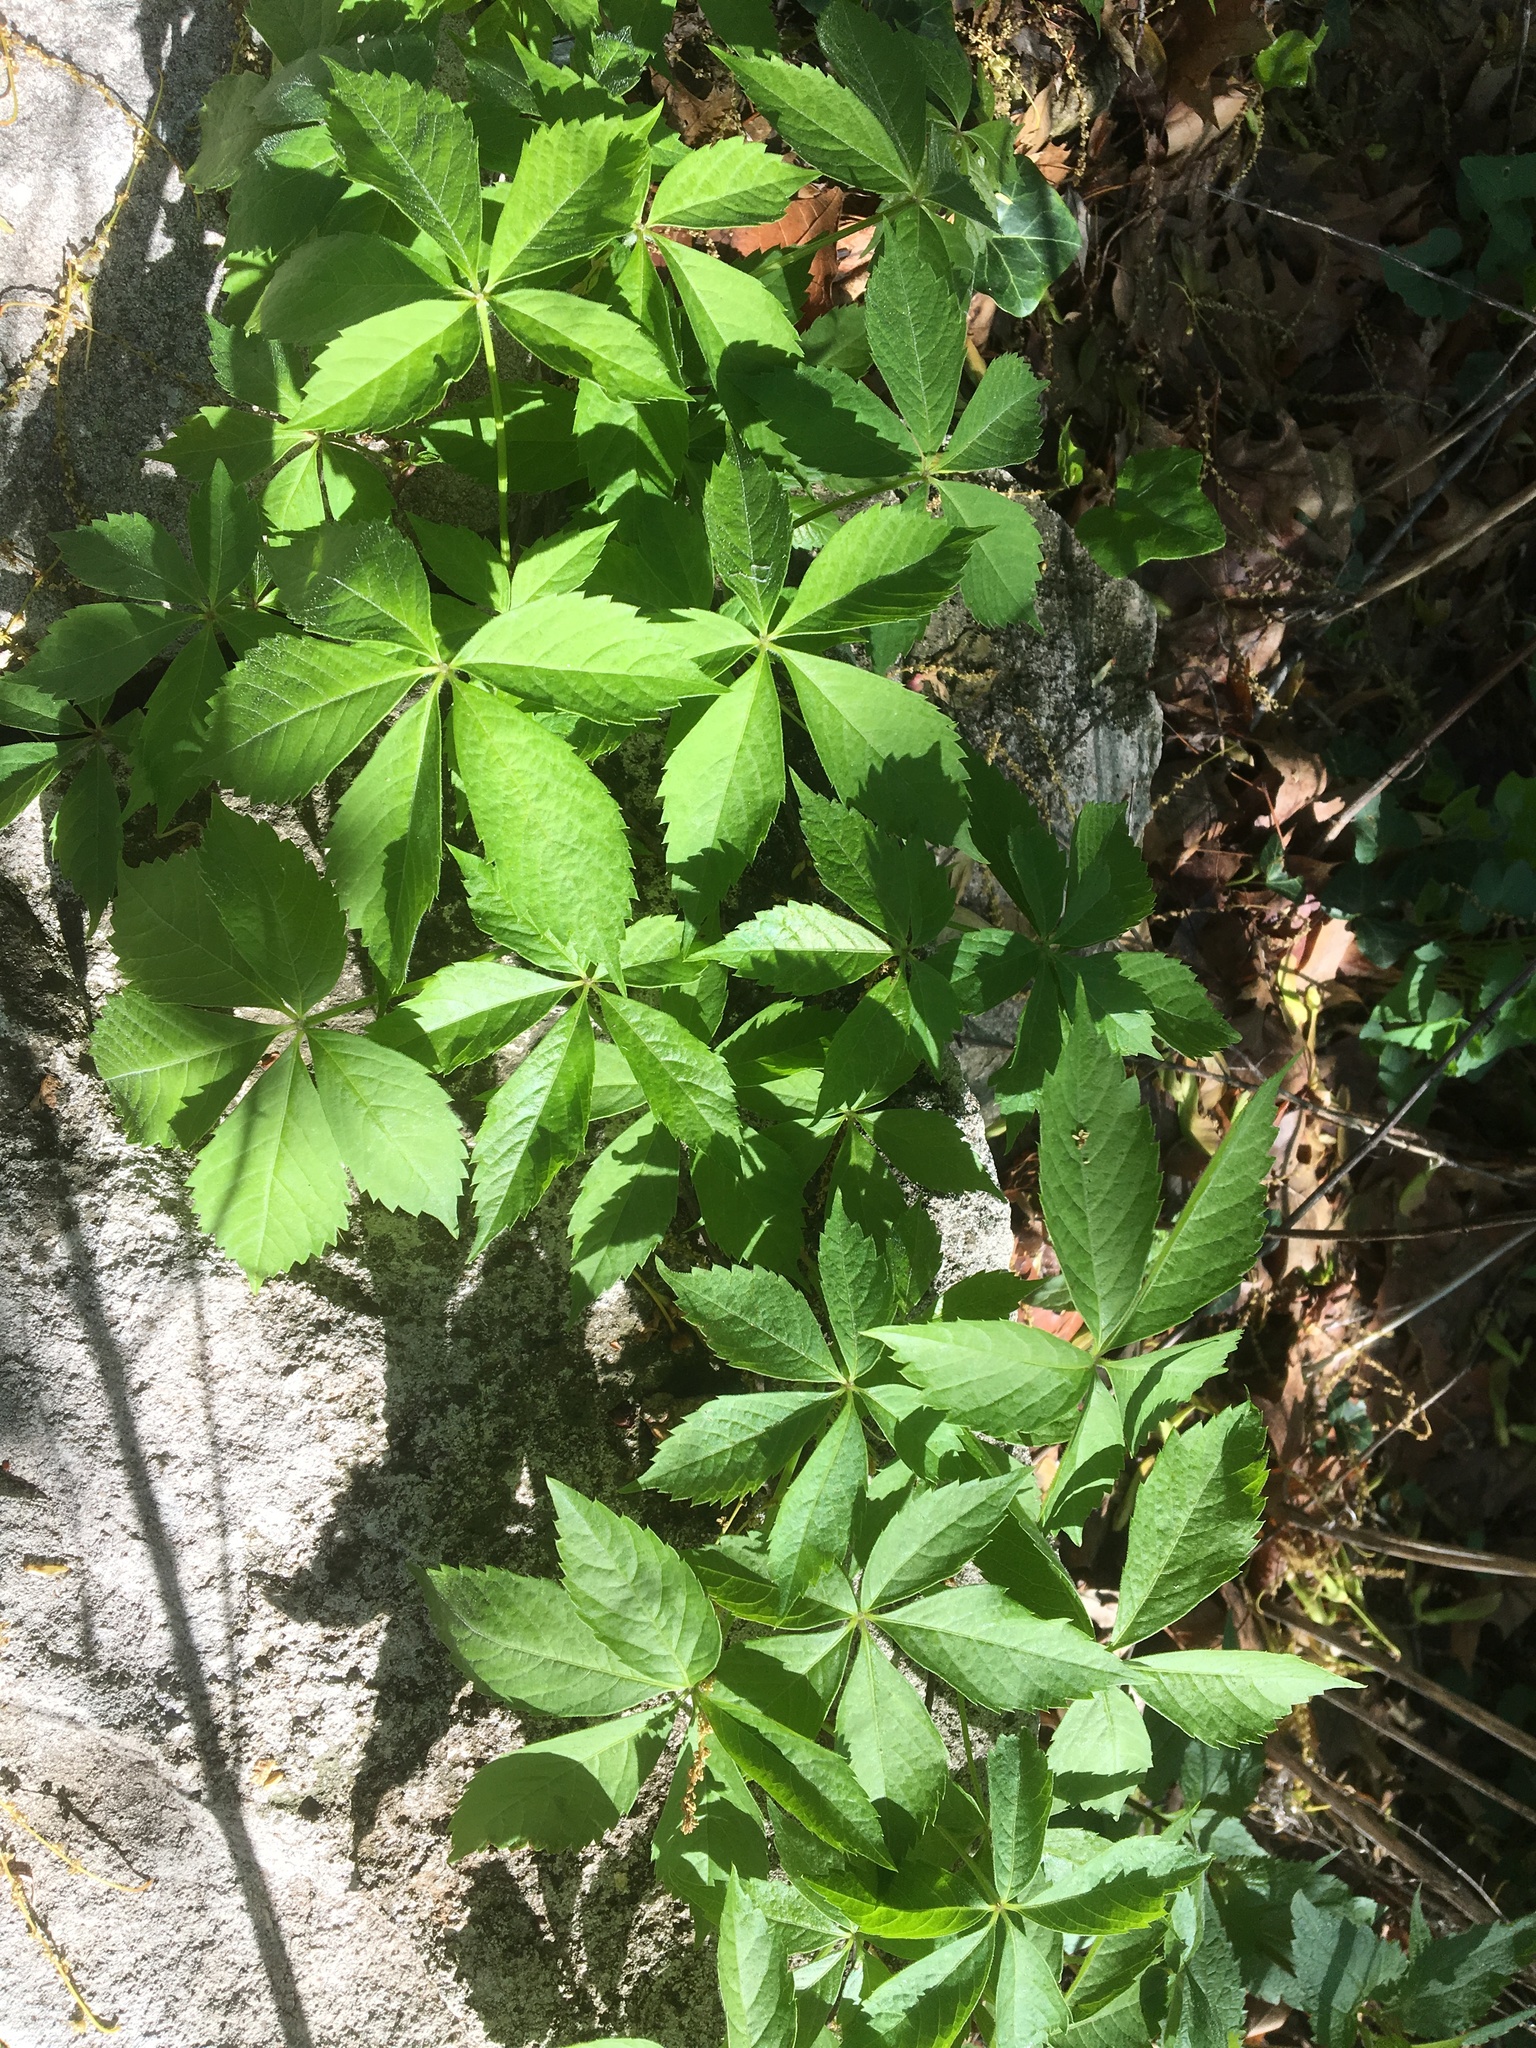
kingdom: Plantae
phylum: Tracheophyta
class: Magnoliopsida
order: Vitales
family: Vitaceae
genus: Parthenocissus
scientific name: Parthenocissus quinquefolia
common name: Virginia-creeper
